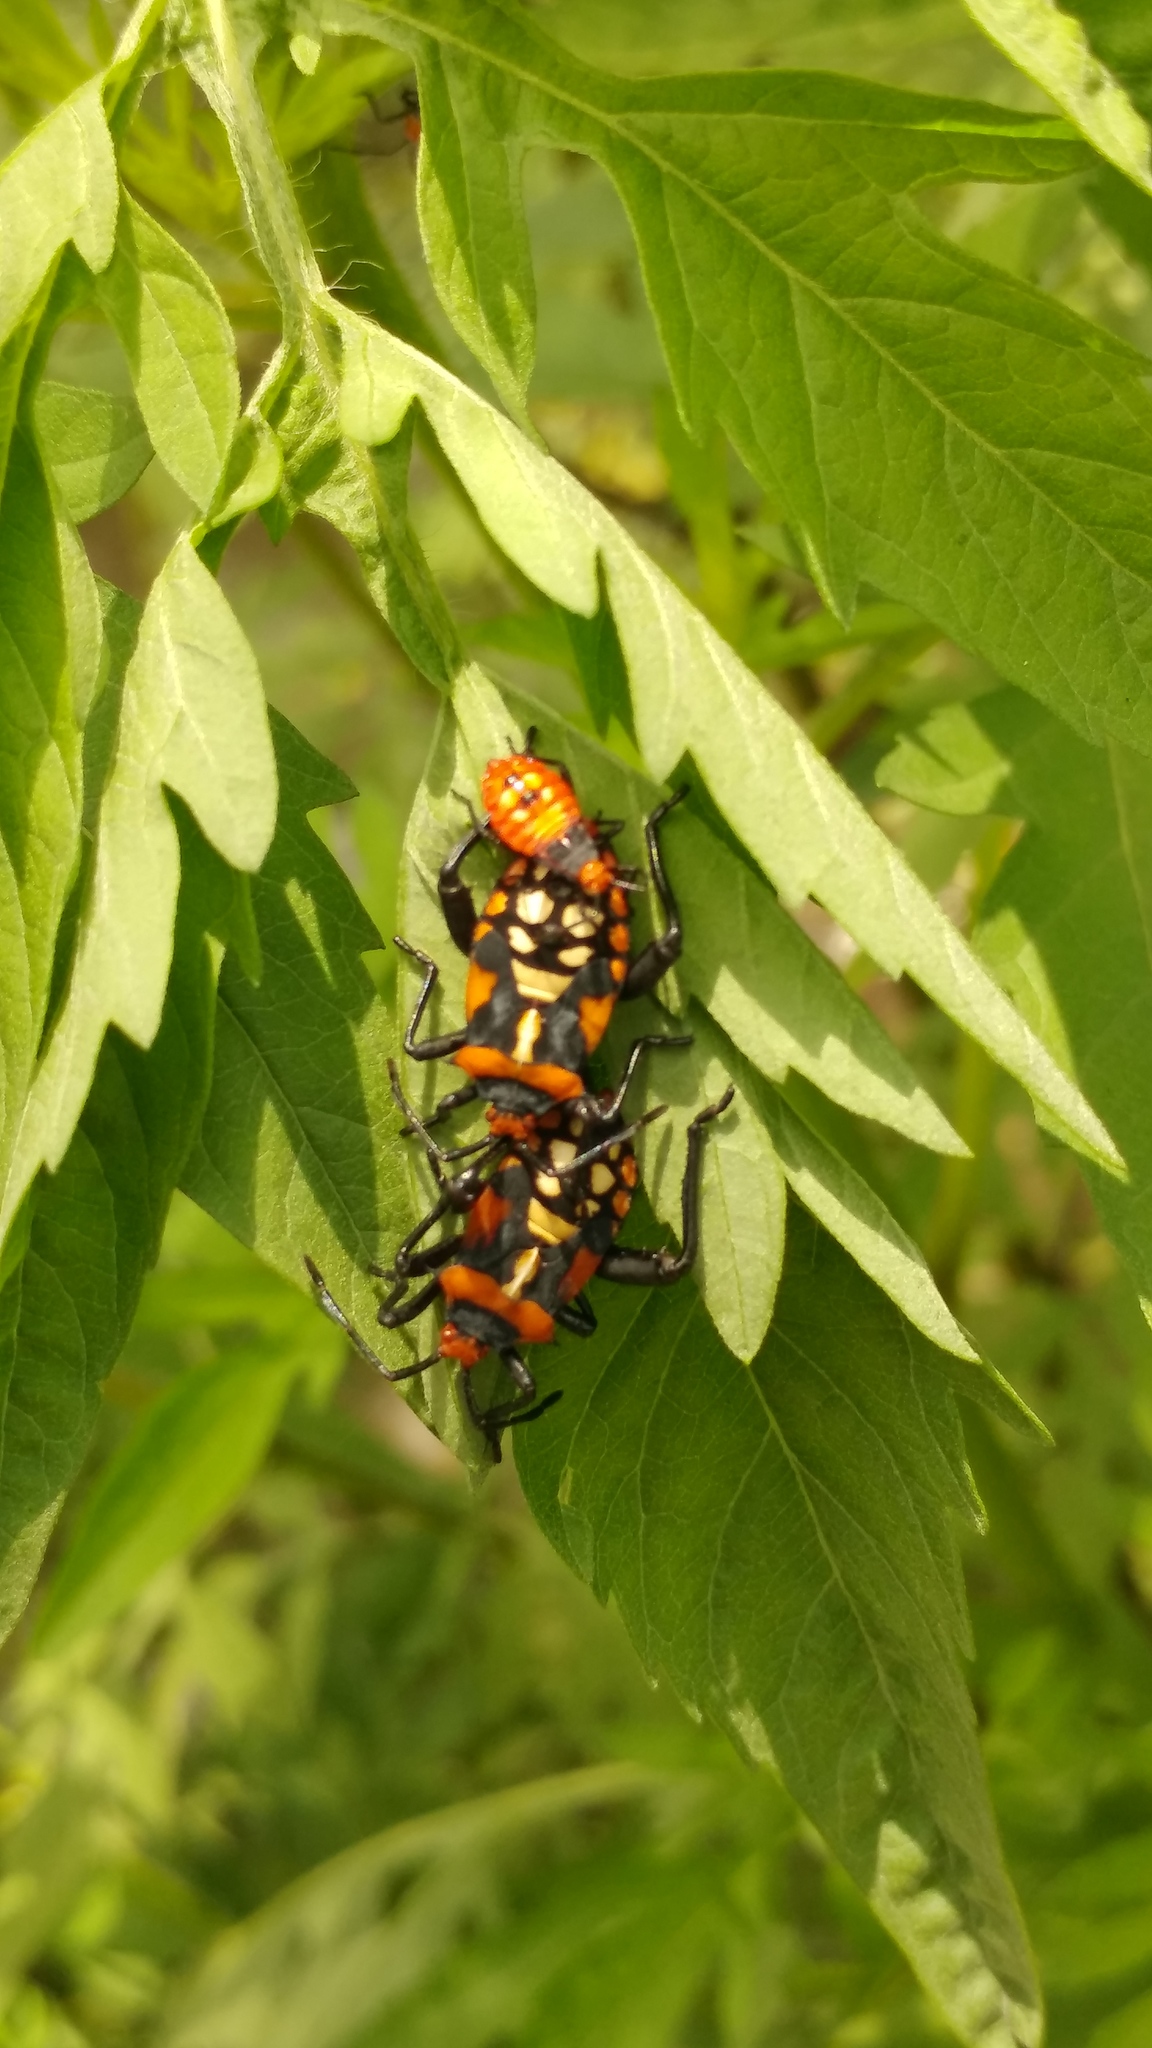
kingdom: Animalia
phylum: Arthropoda
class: Insecta
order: Hemiptera
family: Coreidae
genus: Sagotylus
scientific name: Sagotylus confluens
